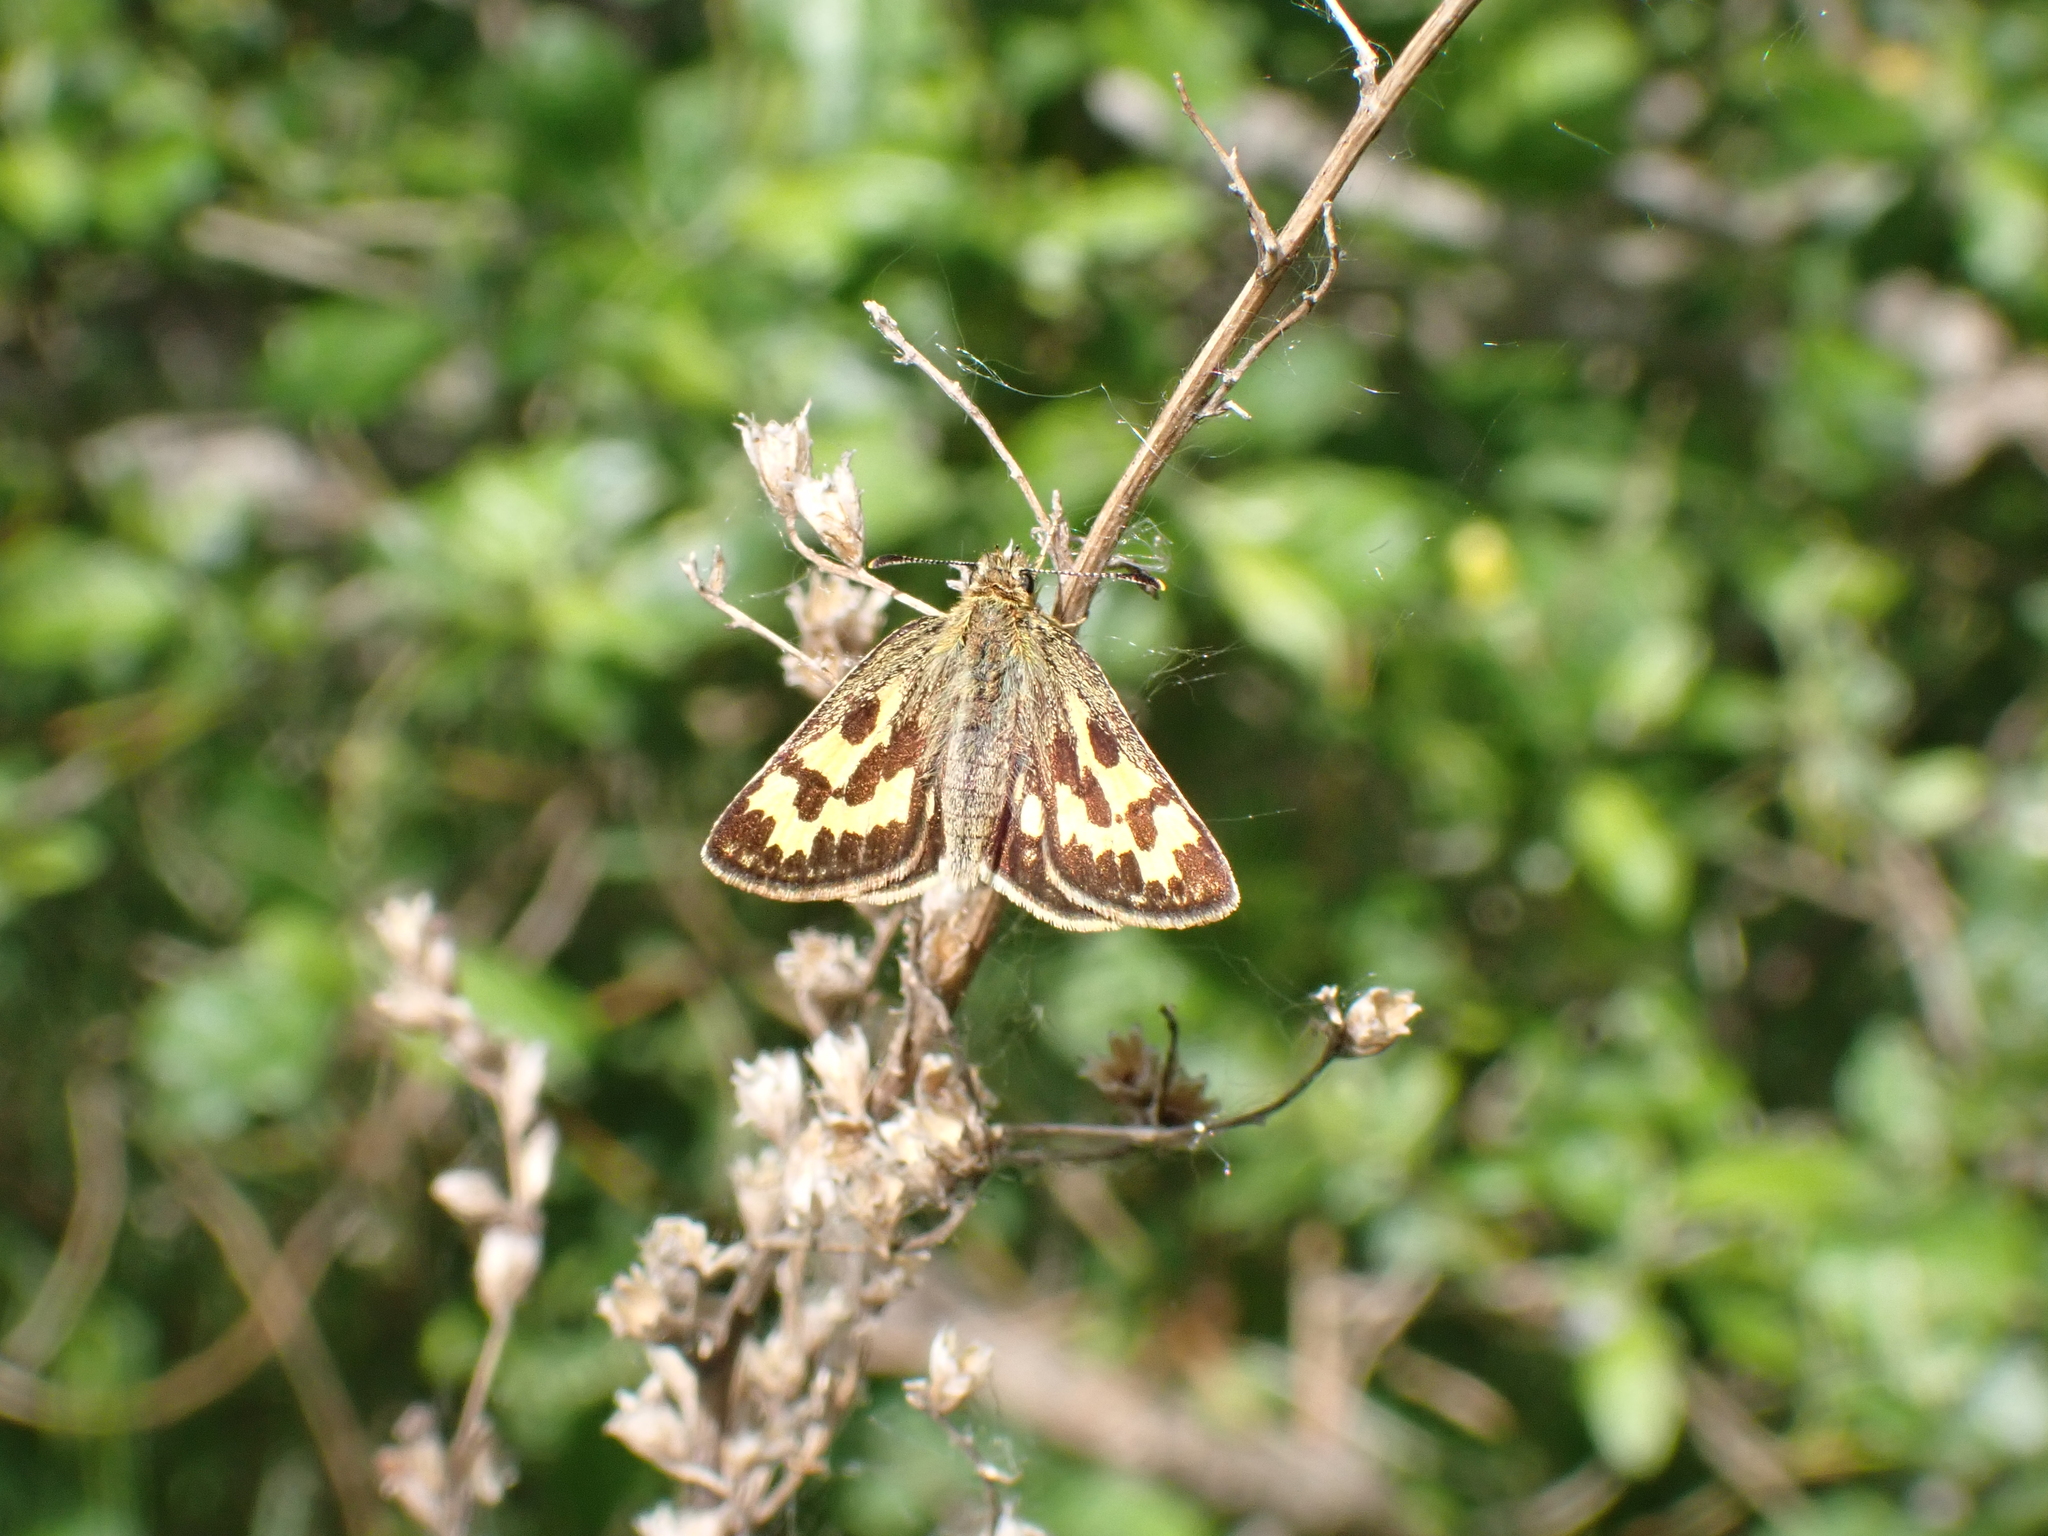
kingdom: Animalia
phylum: Arthropoda
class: Insecta
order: Lepidoptera
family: Hesperiidae
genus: Carterocephalus
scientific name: Carterocephalus silvicola
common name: Northern chequered skipper
